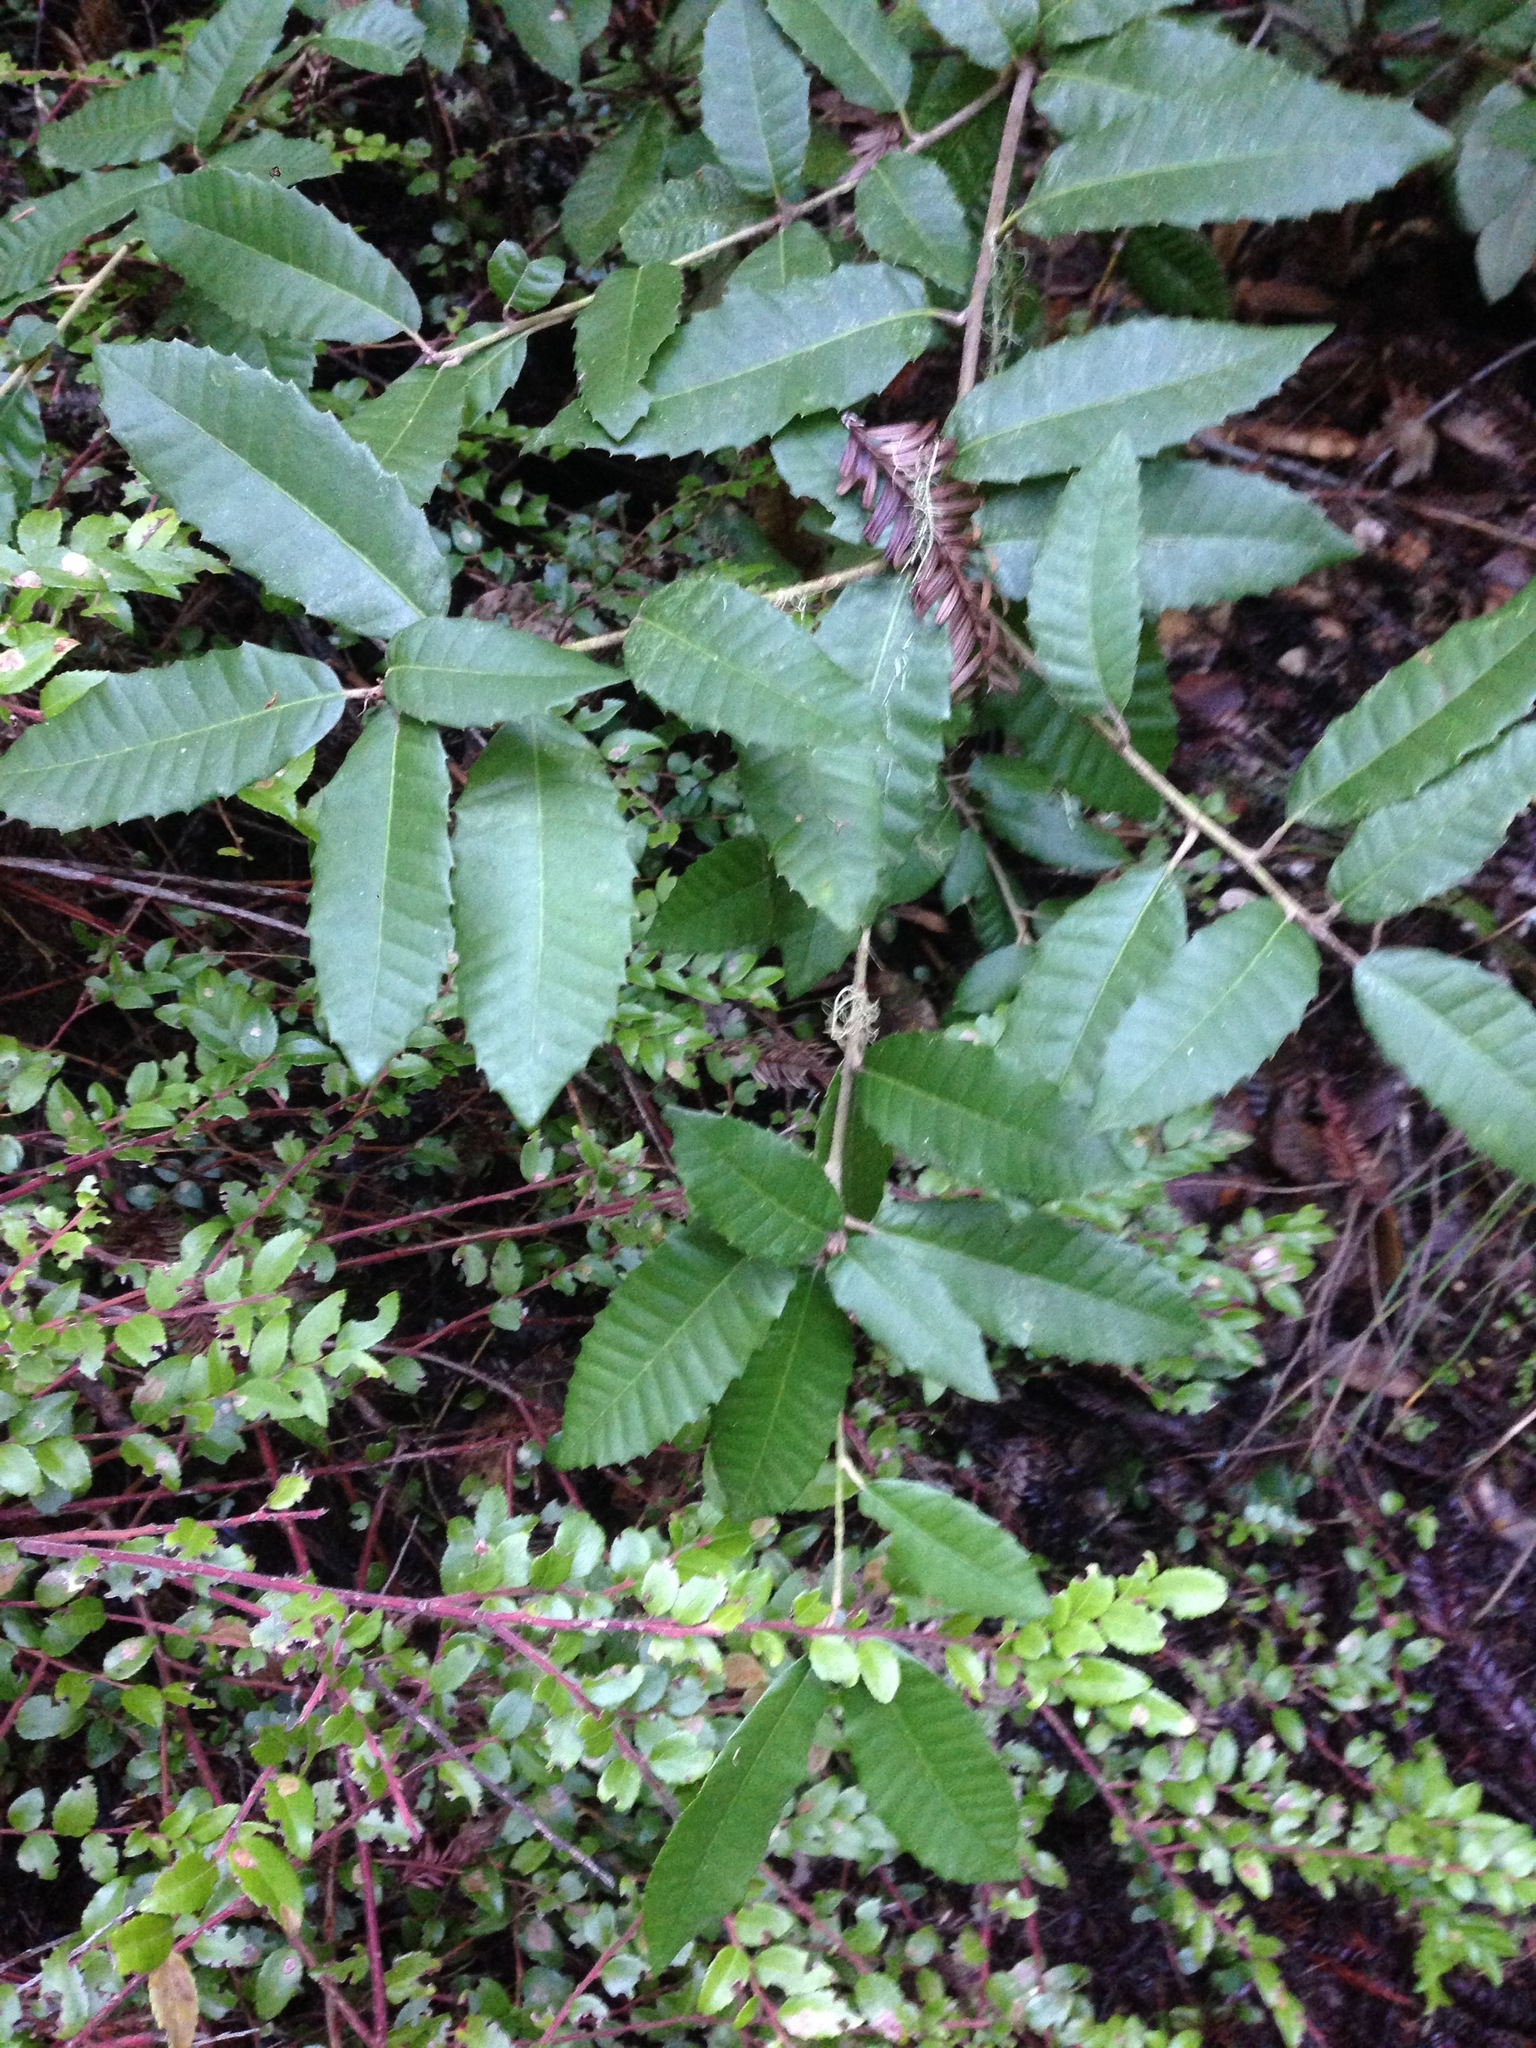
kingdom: Plantae
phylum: Tracheophyta
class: Magnoliopsida
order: Fagales
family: Fagaceae
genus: Notholithocarpus
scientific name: Notholithocarpus densiflorus
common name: Tan bark oak
